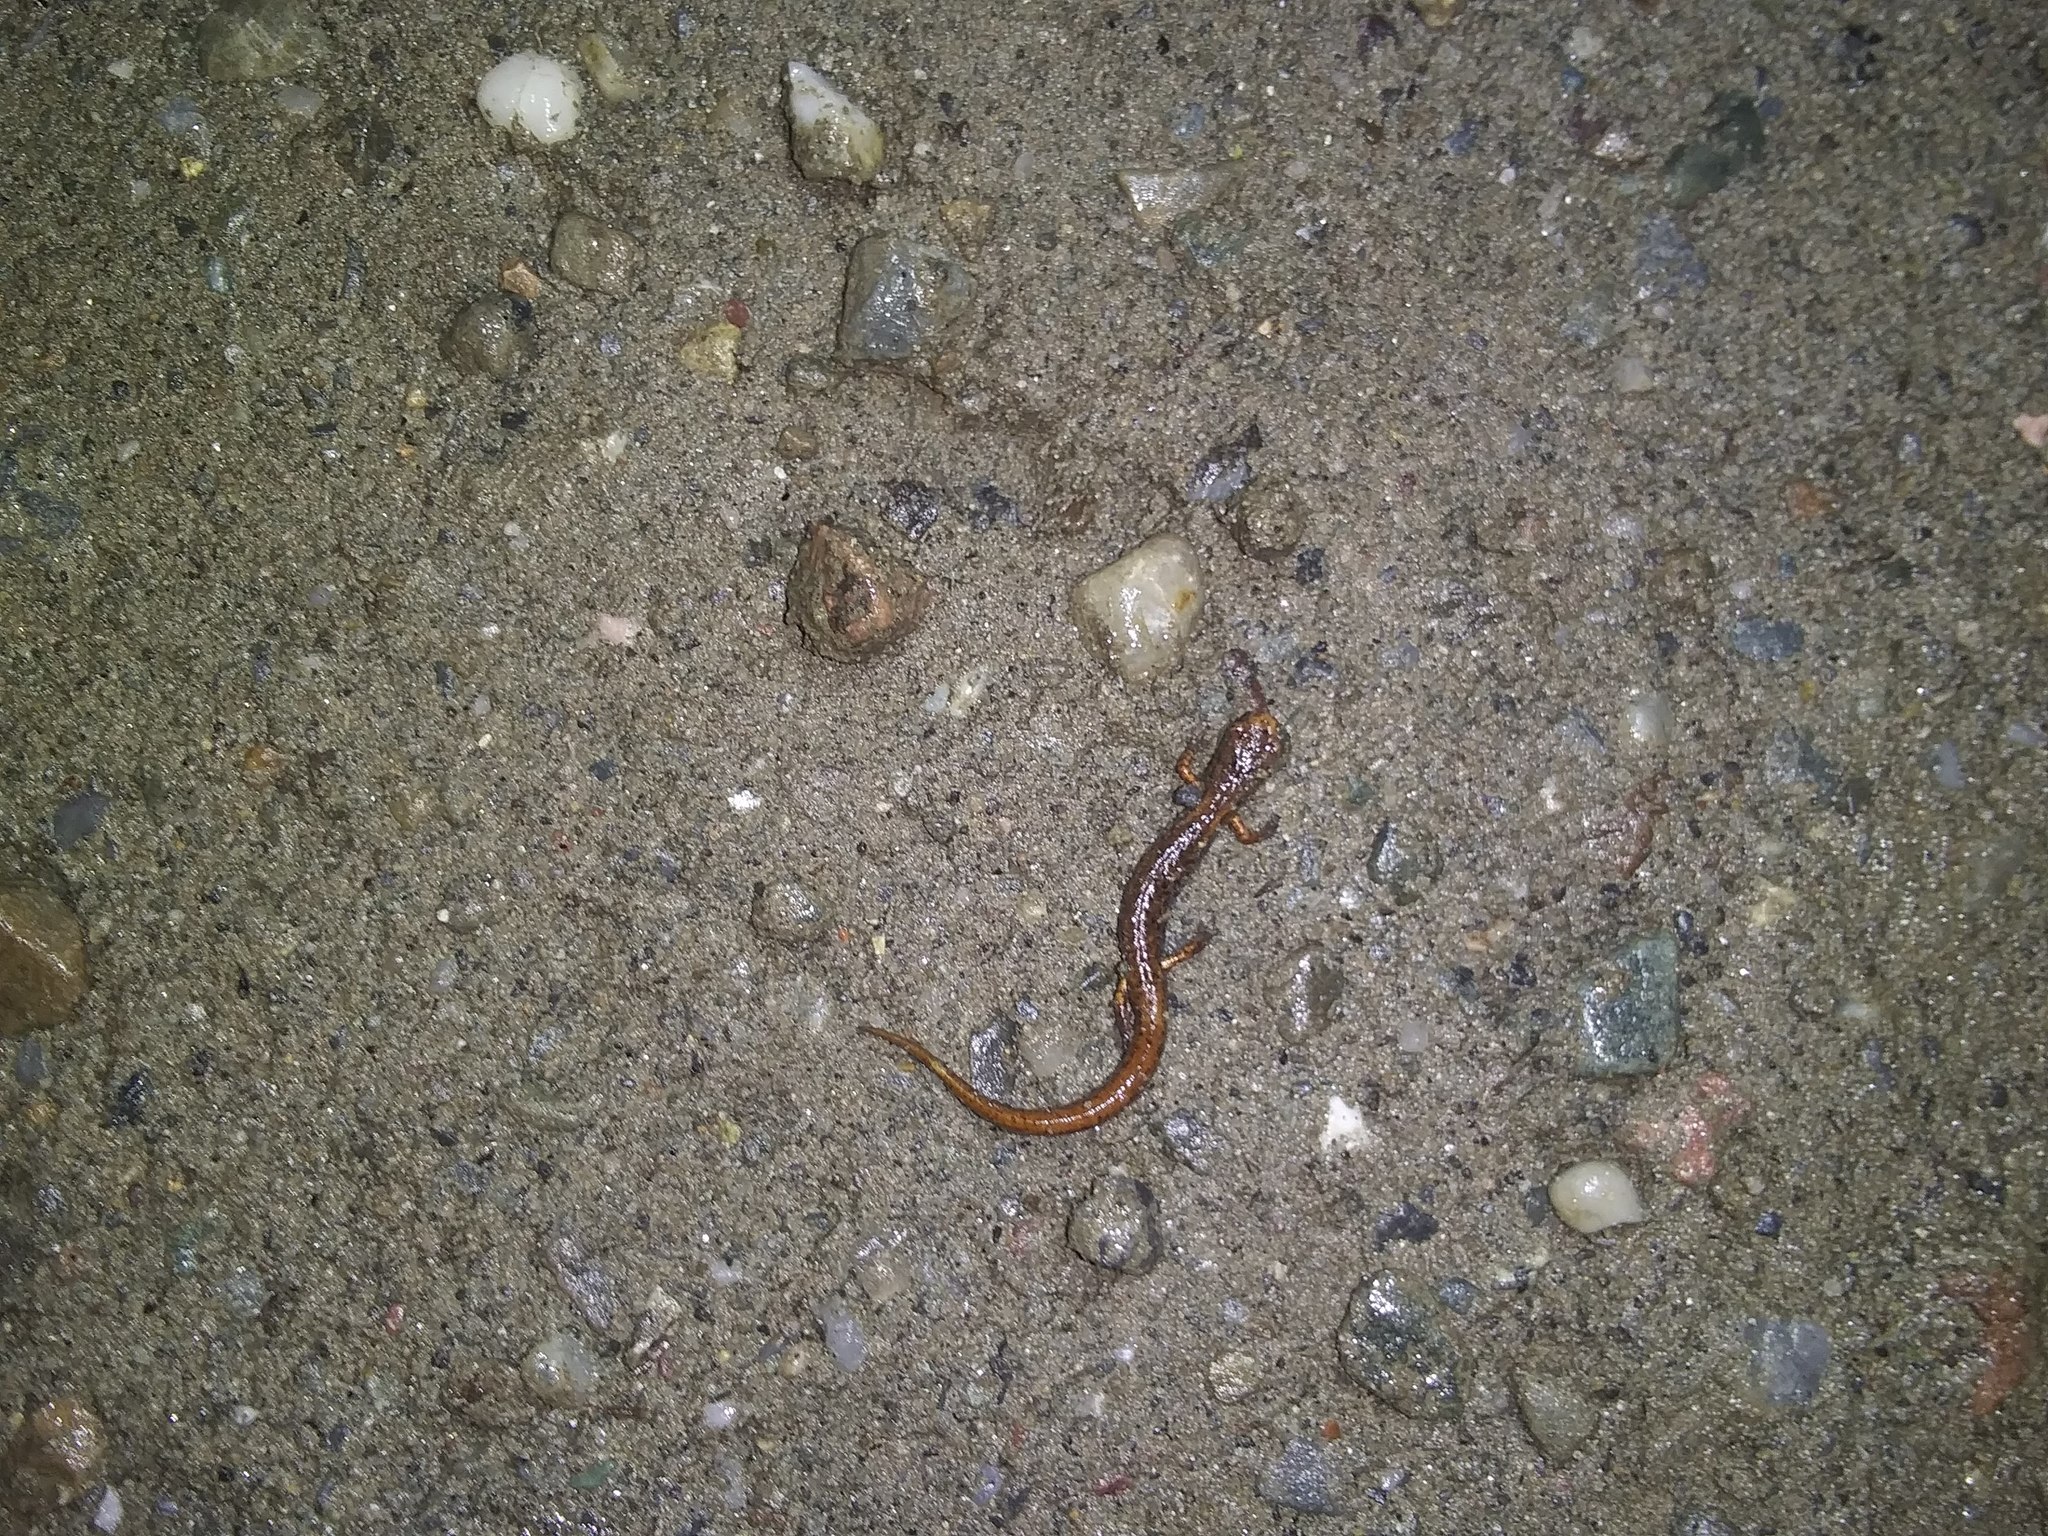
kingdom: Animalia
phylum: Chordata
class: Amphibia
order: Caudata
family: Plethodontidae
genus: Hemidactylium
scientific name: Hemidactylium scutatum
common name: Four-toed salamander
